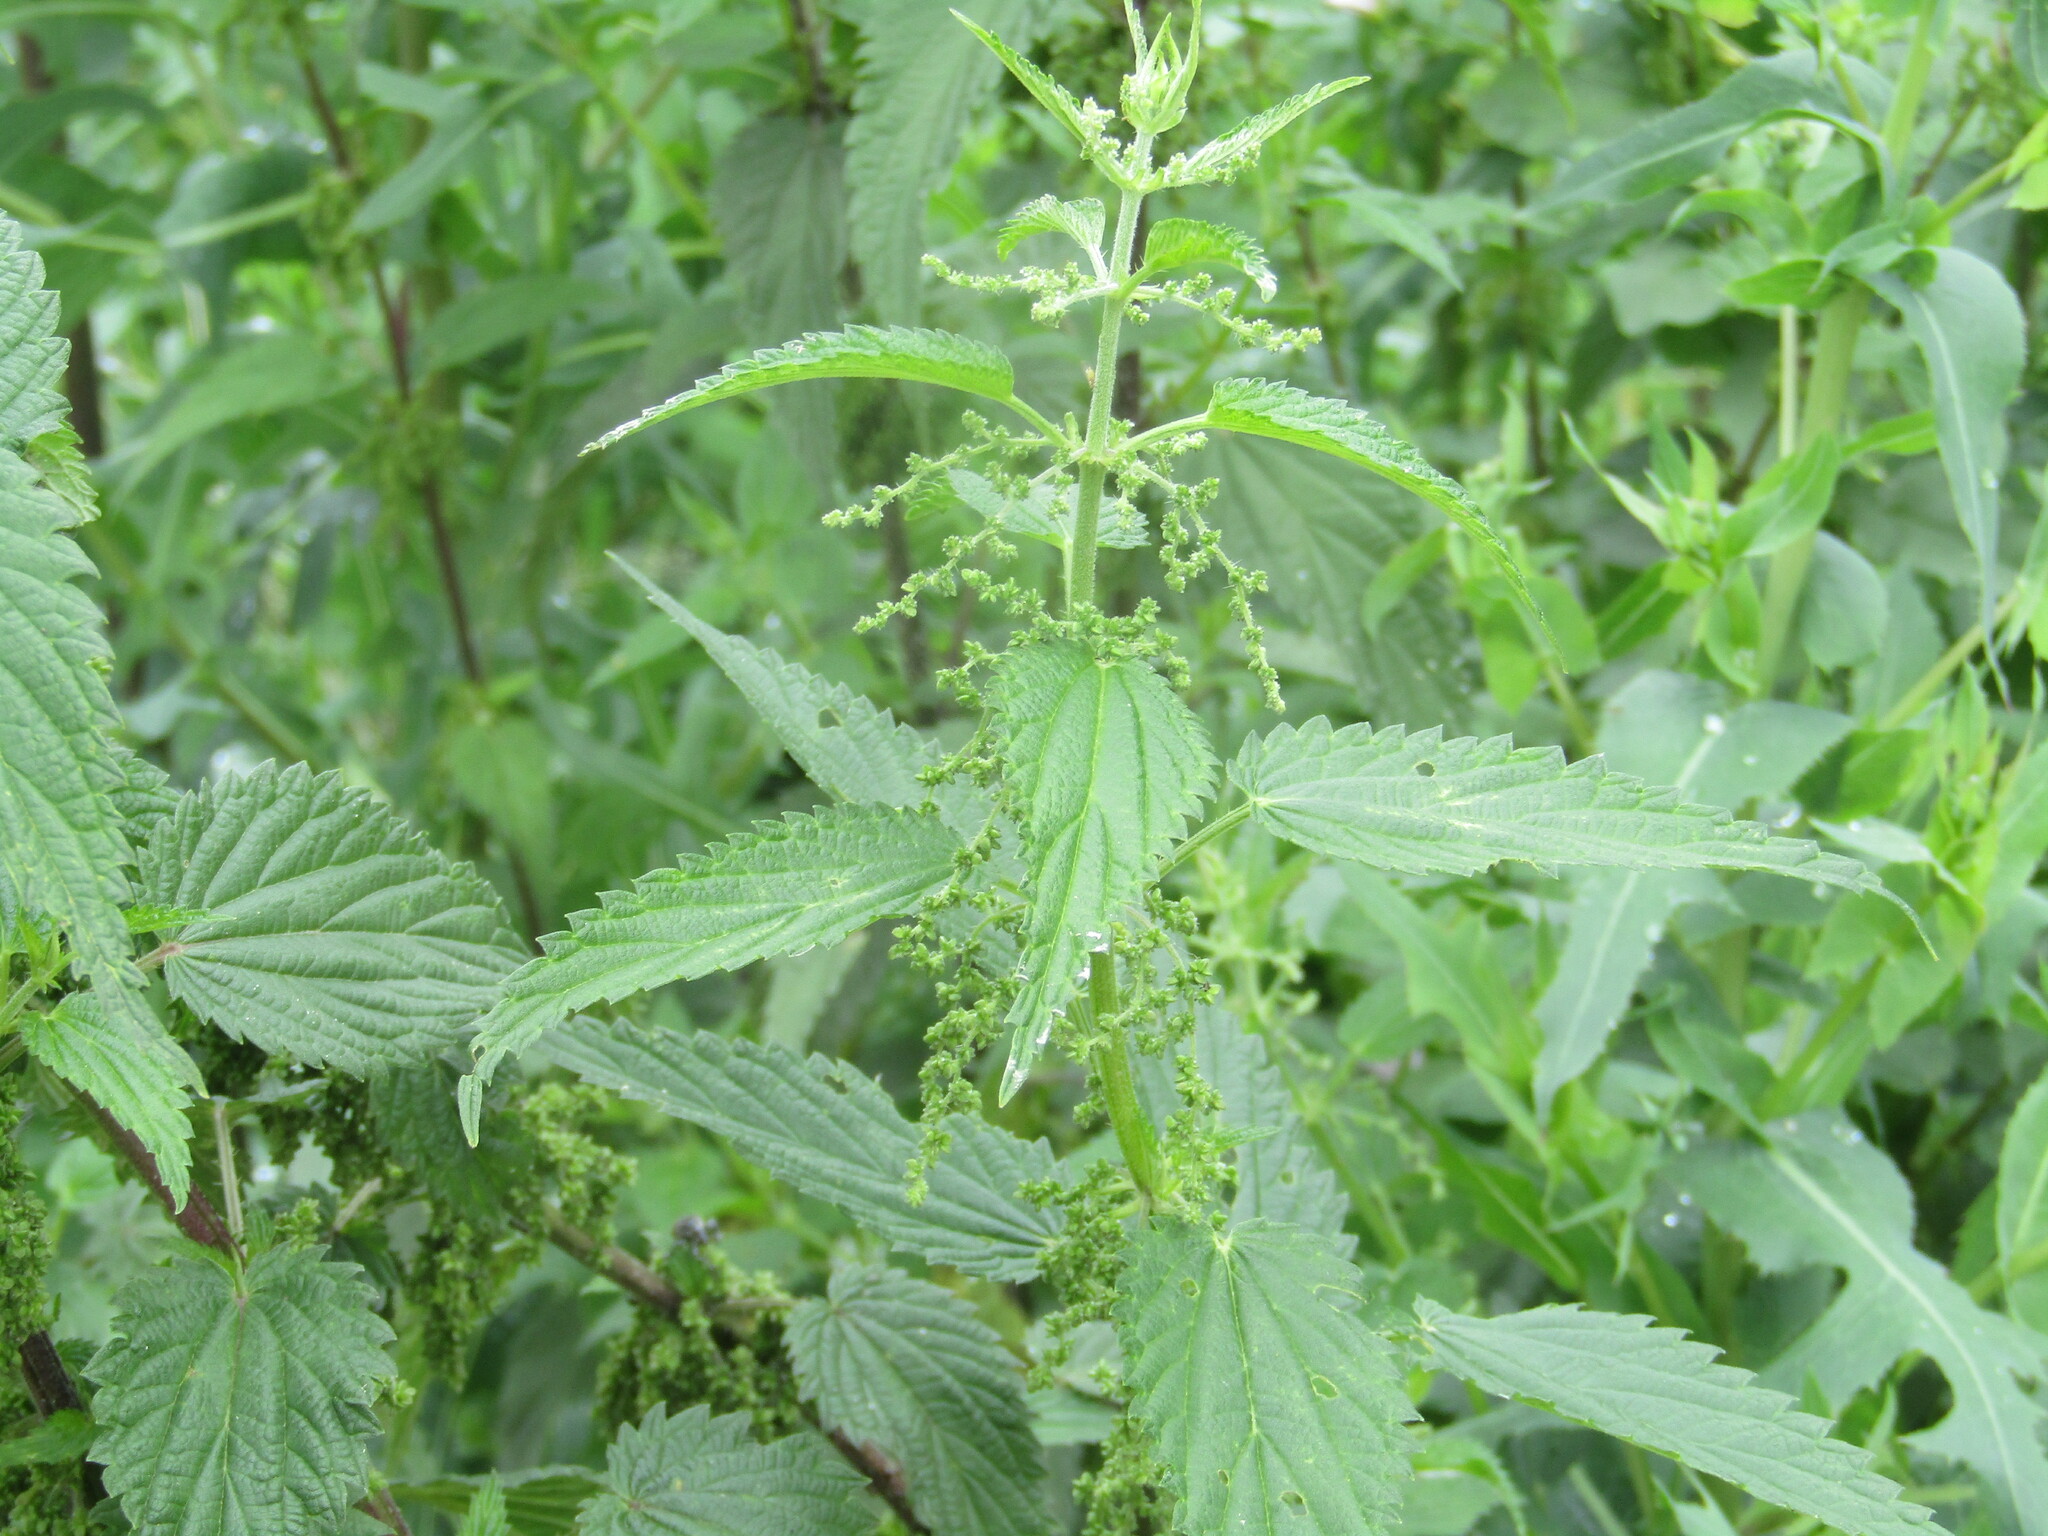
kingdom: Plantae
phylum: Tracheophyta
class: Magnoliopsida
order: Rosales
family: Urticaceae
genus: Urtica
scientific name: Urtica dioica
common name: Common nettle
